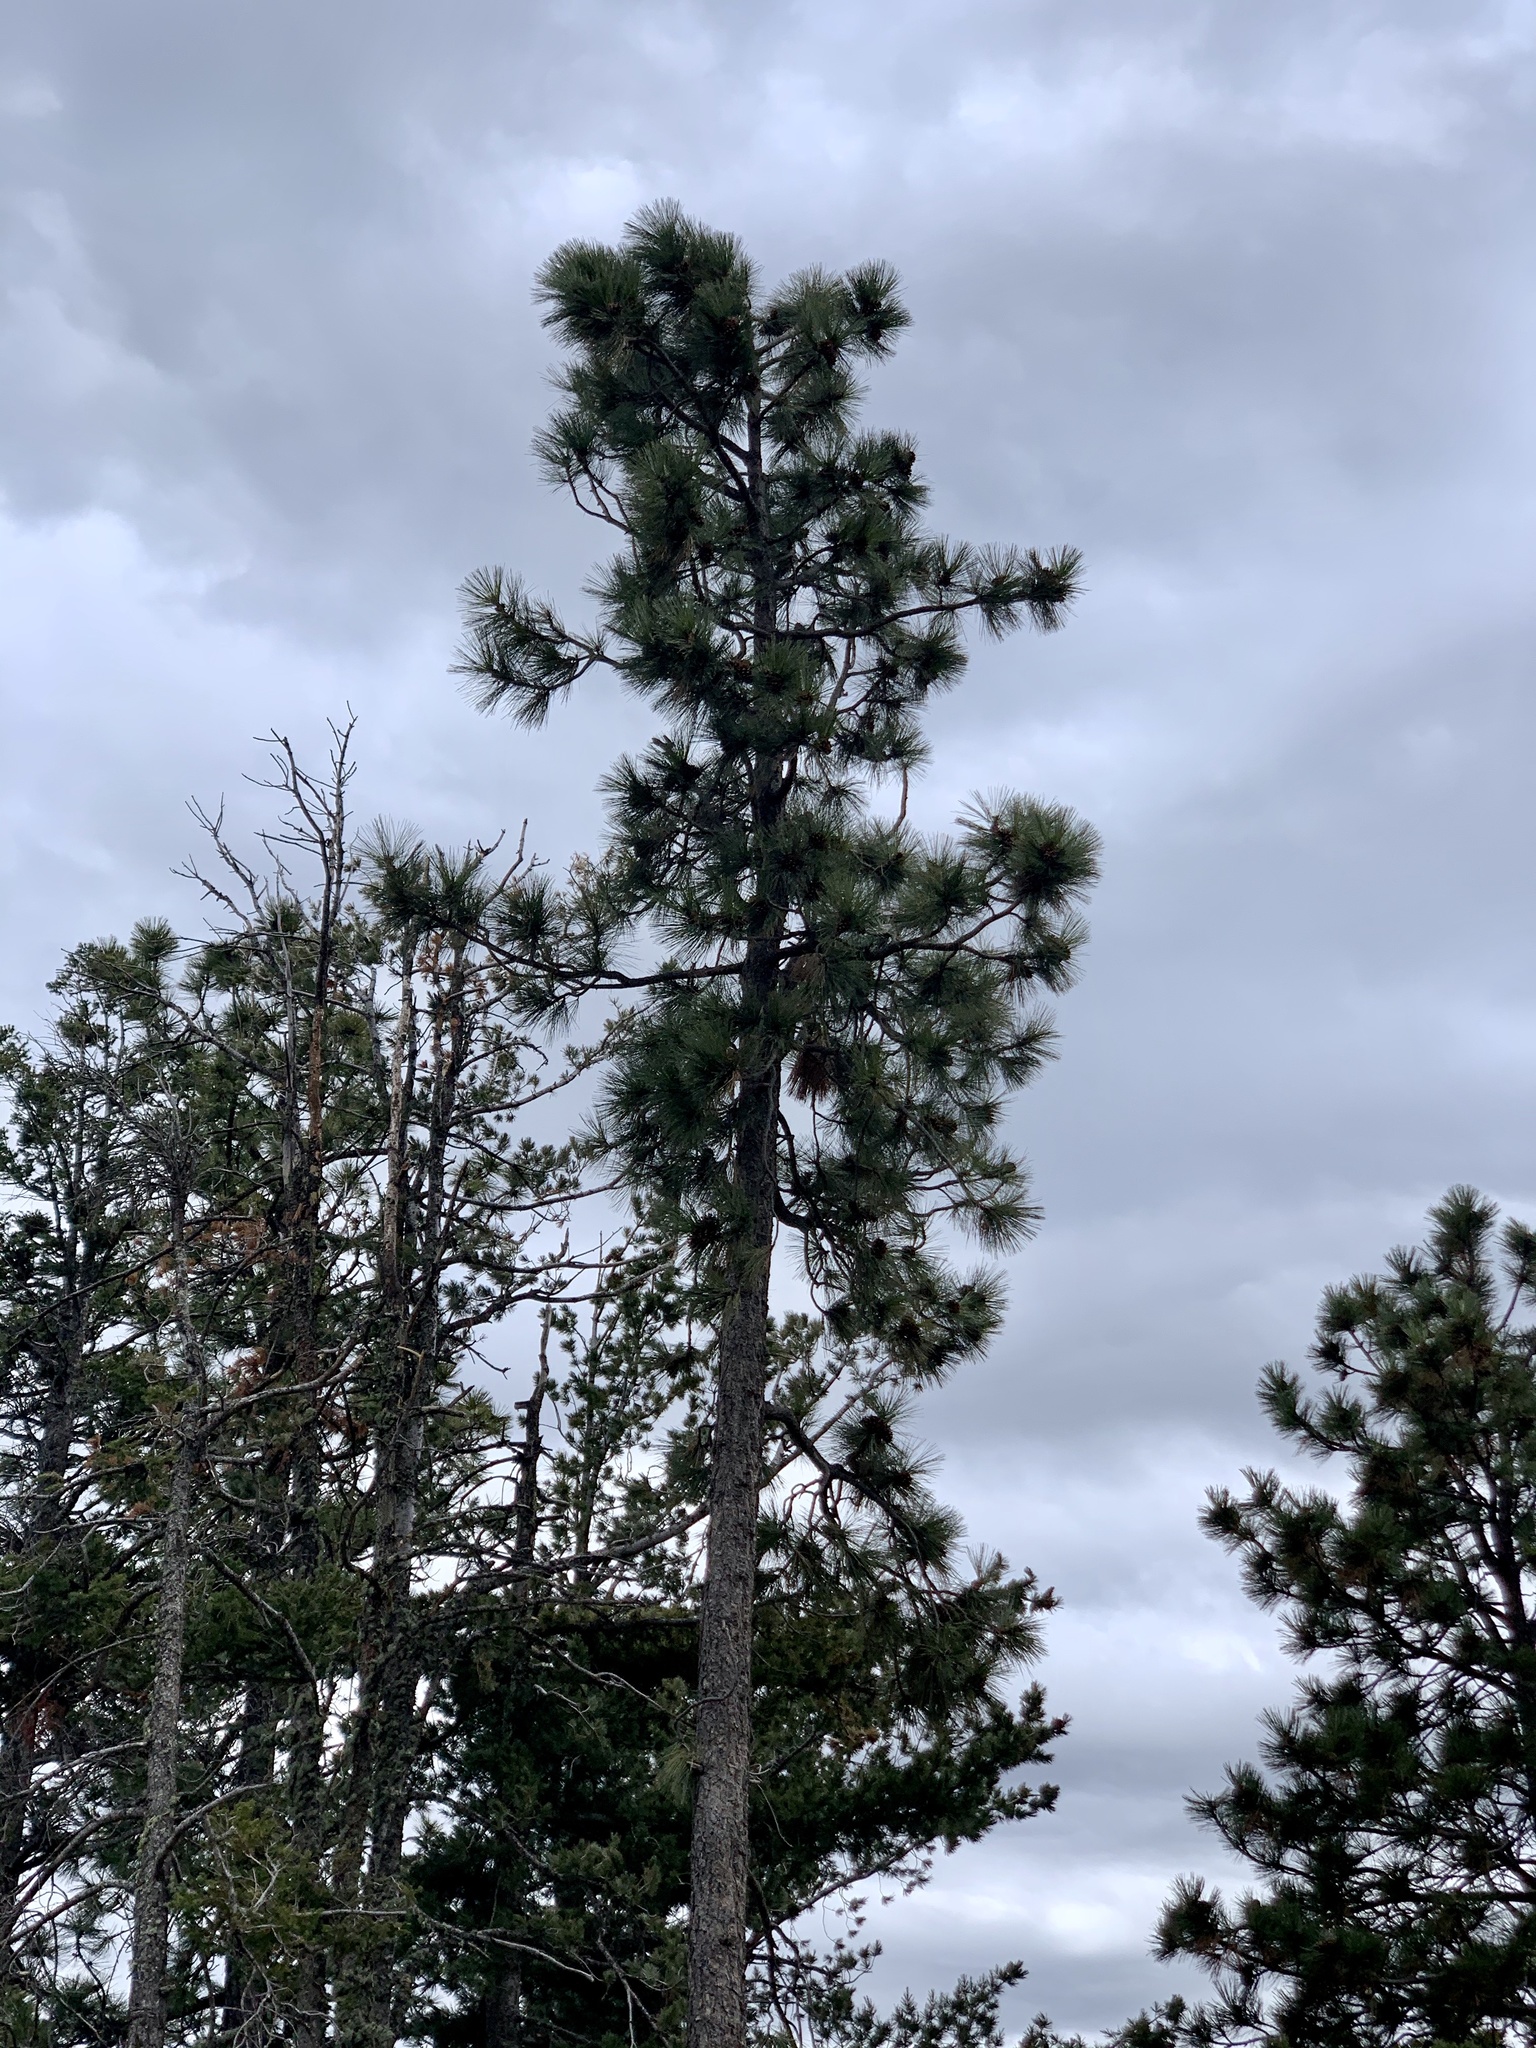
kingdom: Plantae
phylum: Tracheophyta
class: Pinopsida
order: Pinales
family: Pinaceae
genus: Pinus
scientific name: Pinus ponderosa
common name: Western yellow-pine
